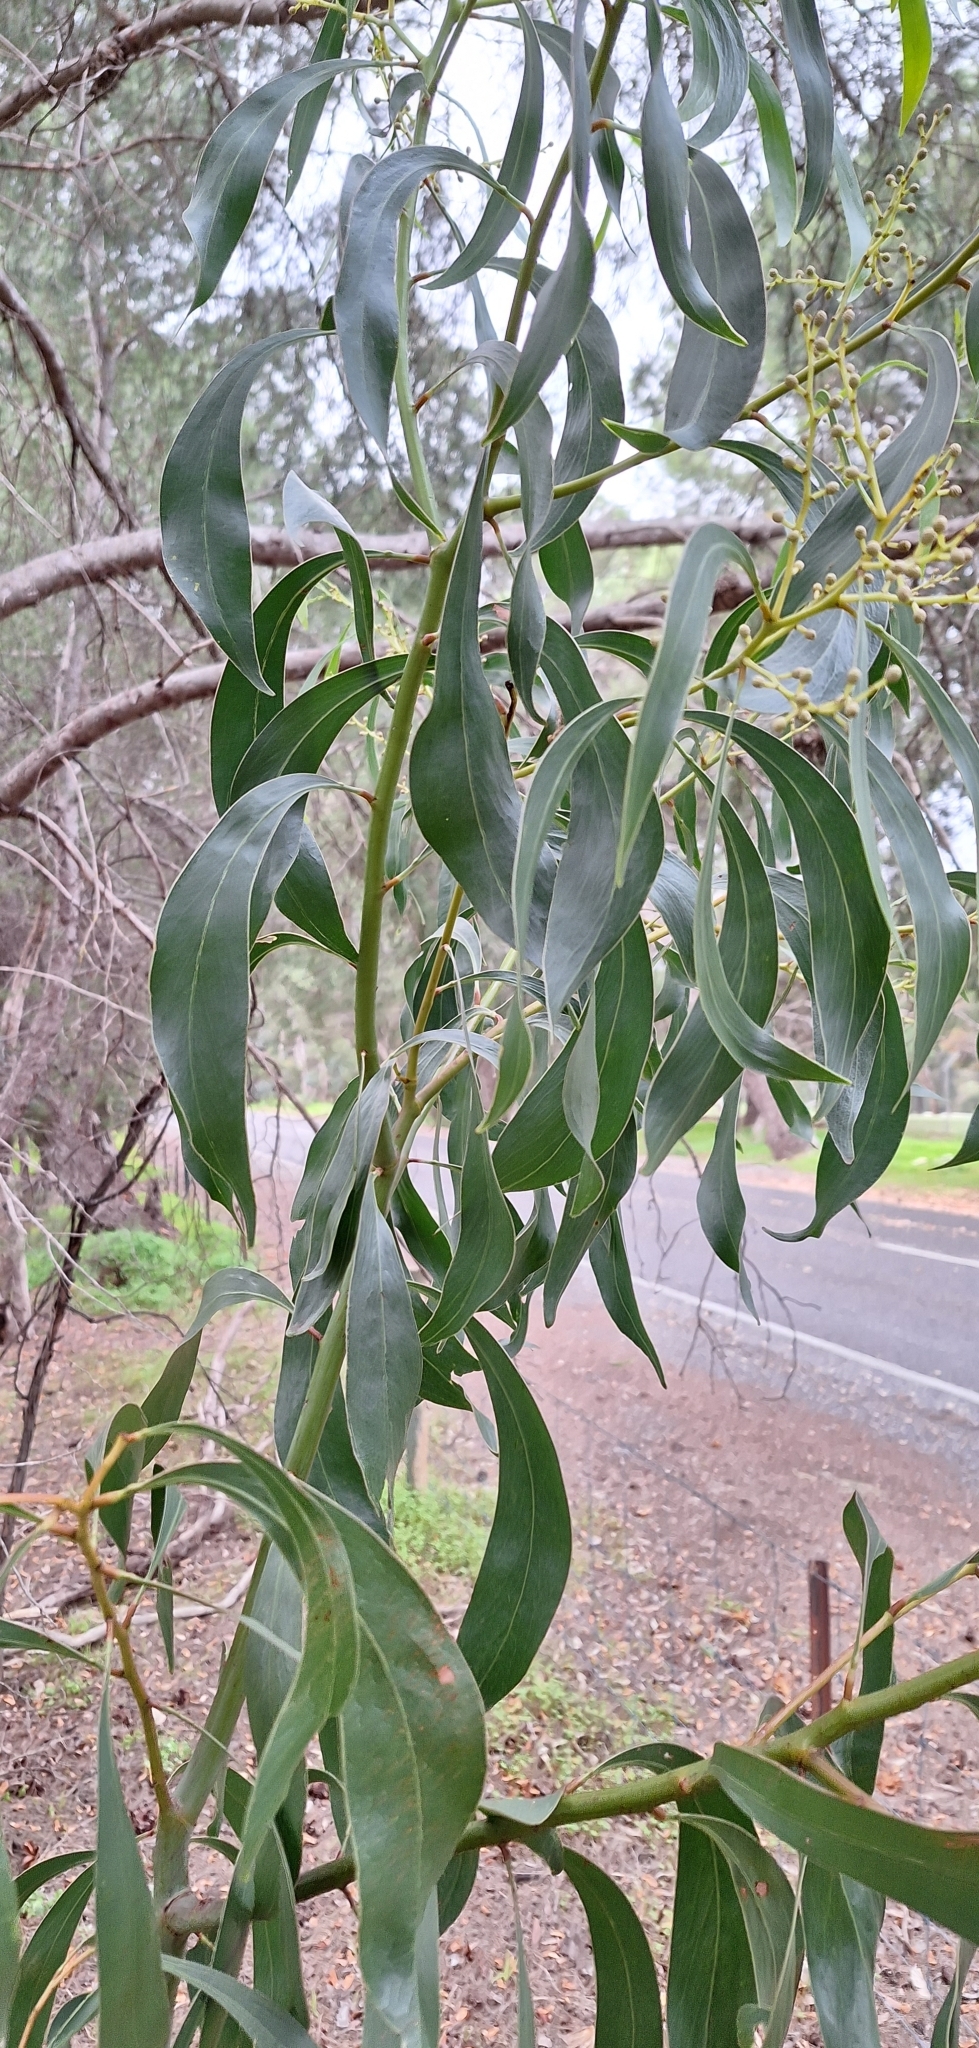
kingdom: Plantae
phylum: Tracheophyta
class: Magnoliopsida
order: Fabales
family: Fabaceae
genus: Acacia
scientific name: Acacia pycnantha
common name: Golden wattle
